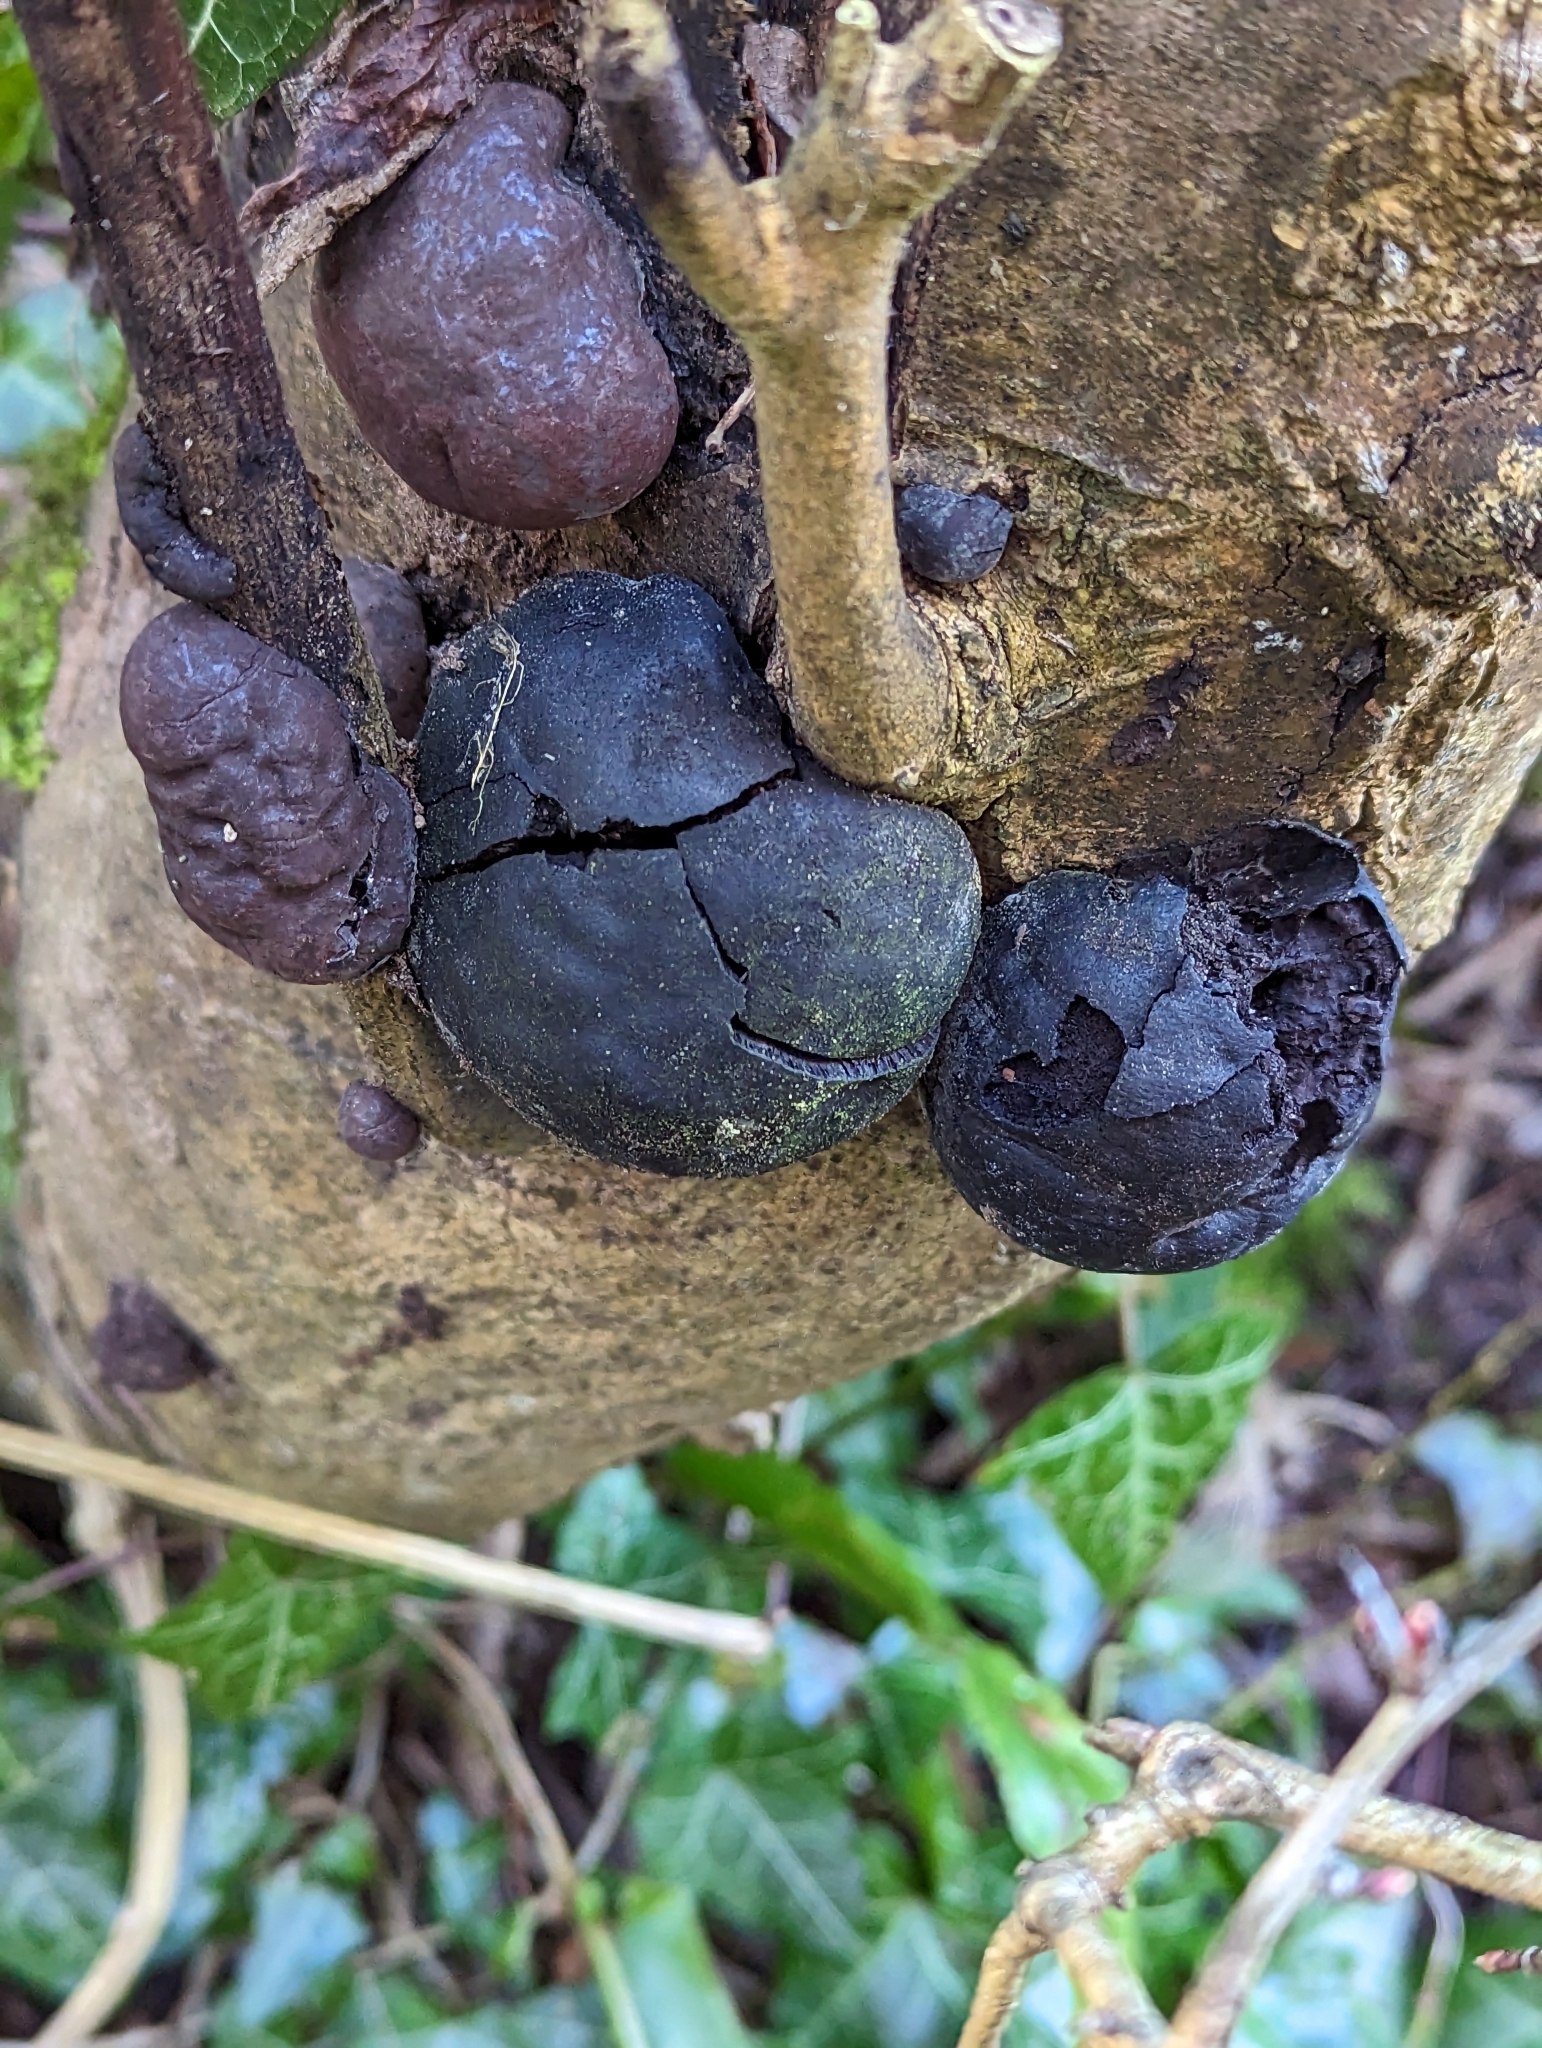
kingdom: Fungi
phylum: Ascomycota
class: Sordariomycetes
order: Xylariales
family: Hypoxylaceae
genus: Daldinia
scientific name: Daldinia concentrica
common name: Cramp balls
